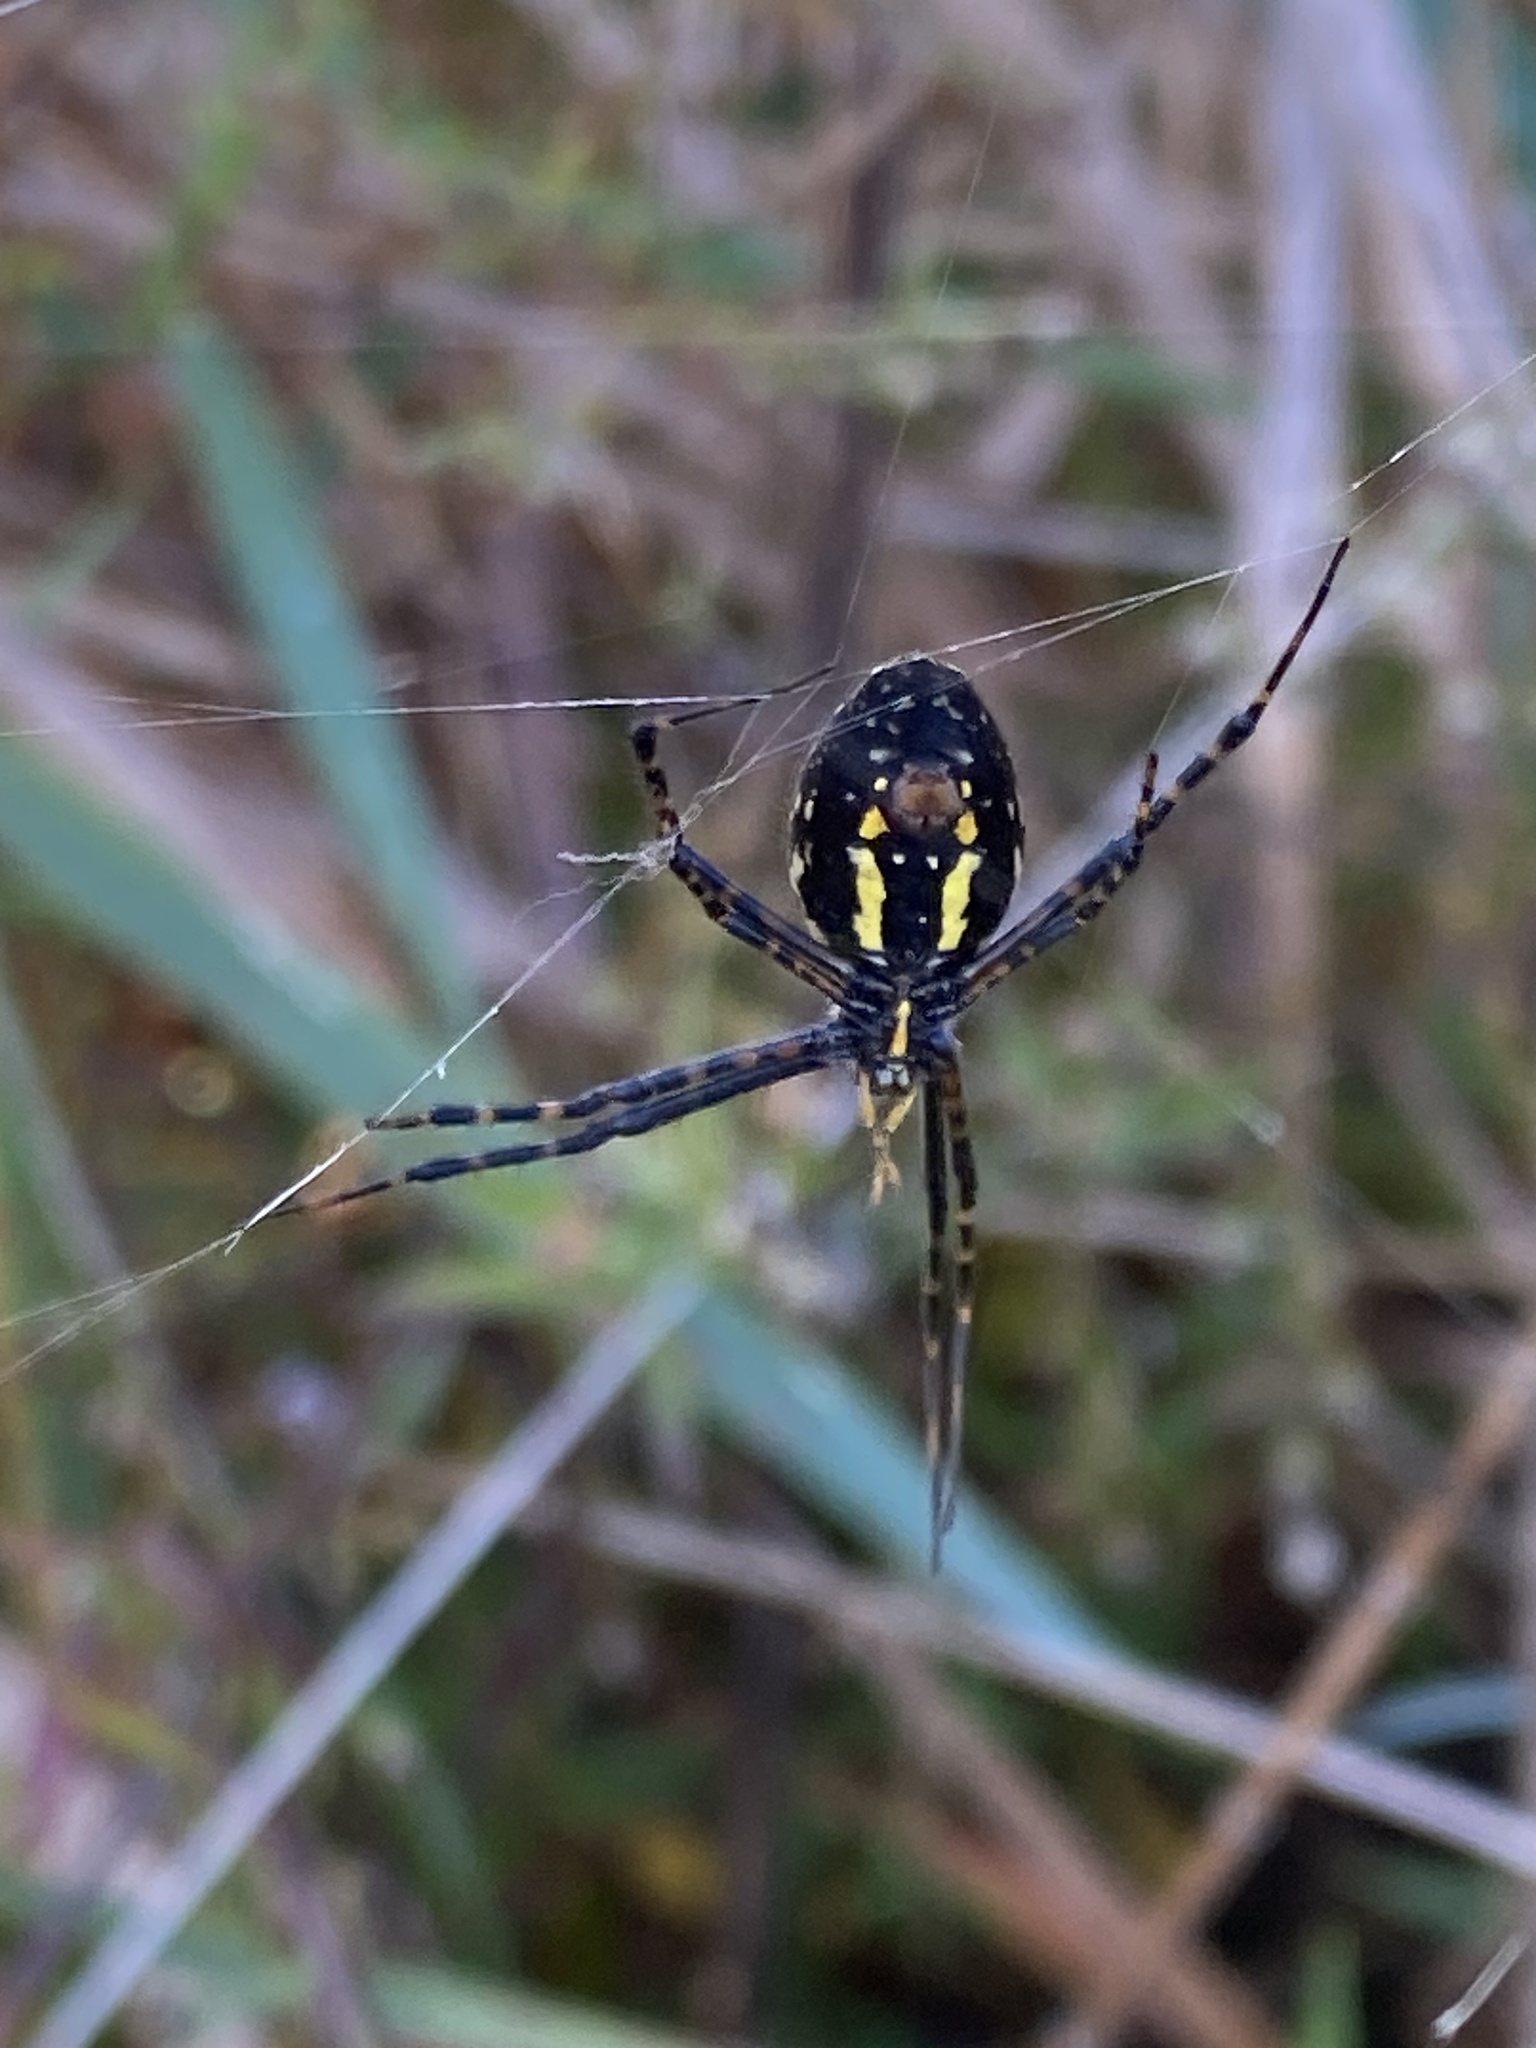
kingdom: Animalia
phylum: Arthropoda
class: Arachnida
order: Araneae
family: Araneidae
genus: Argiope
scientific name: Argiope trifasciata
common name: Banded garden spider
